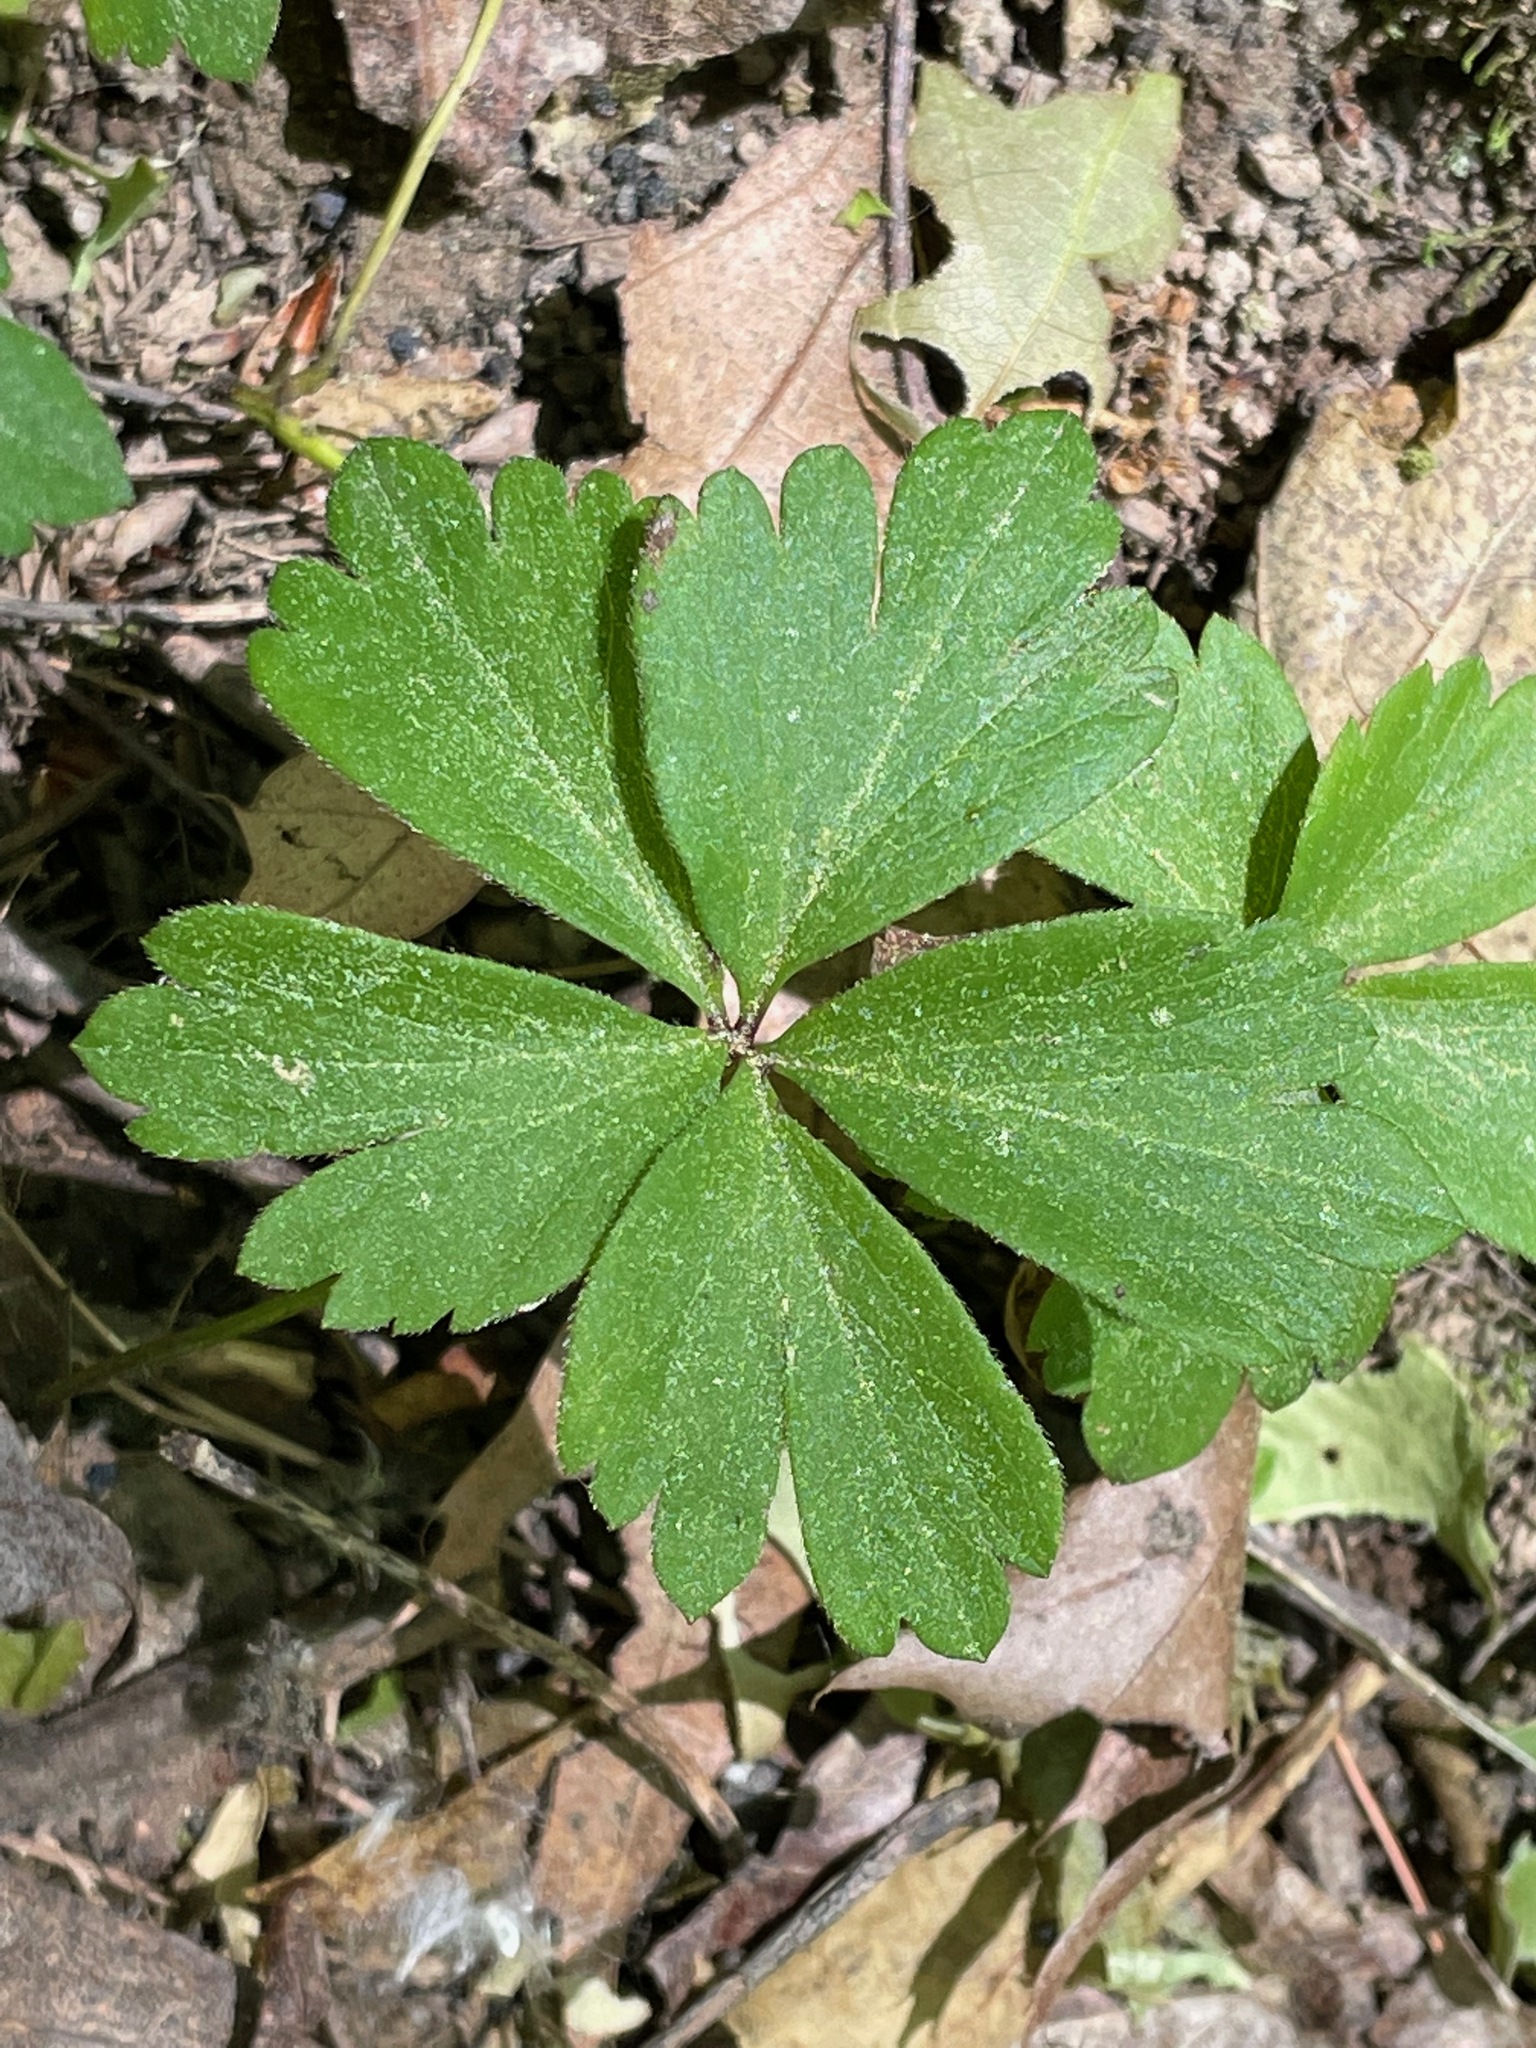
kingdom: Plantae
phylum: Tracheophyta
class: Magnoliopsida
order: Ranunculales
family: Ranunculaceae
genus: Anemone
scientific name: Anemone quinquefolia
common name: Wood anemone
